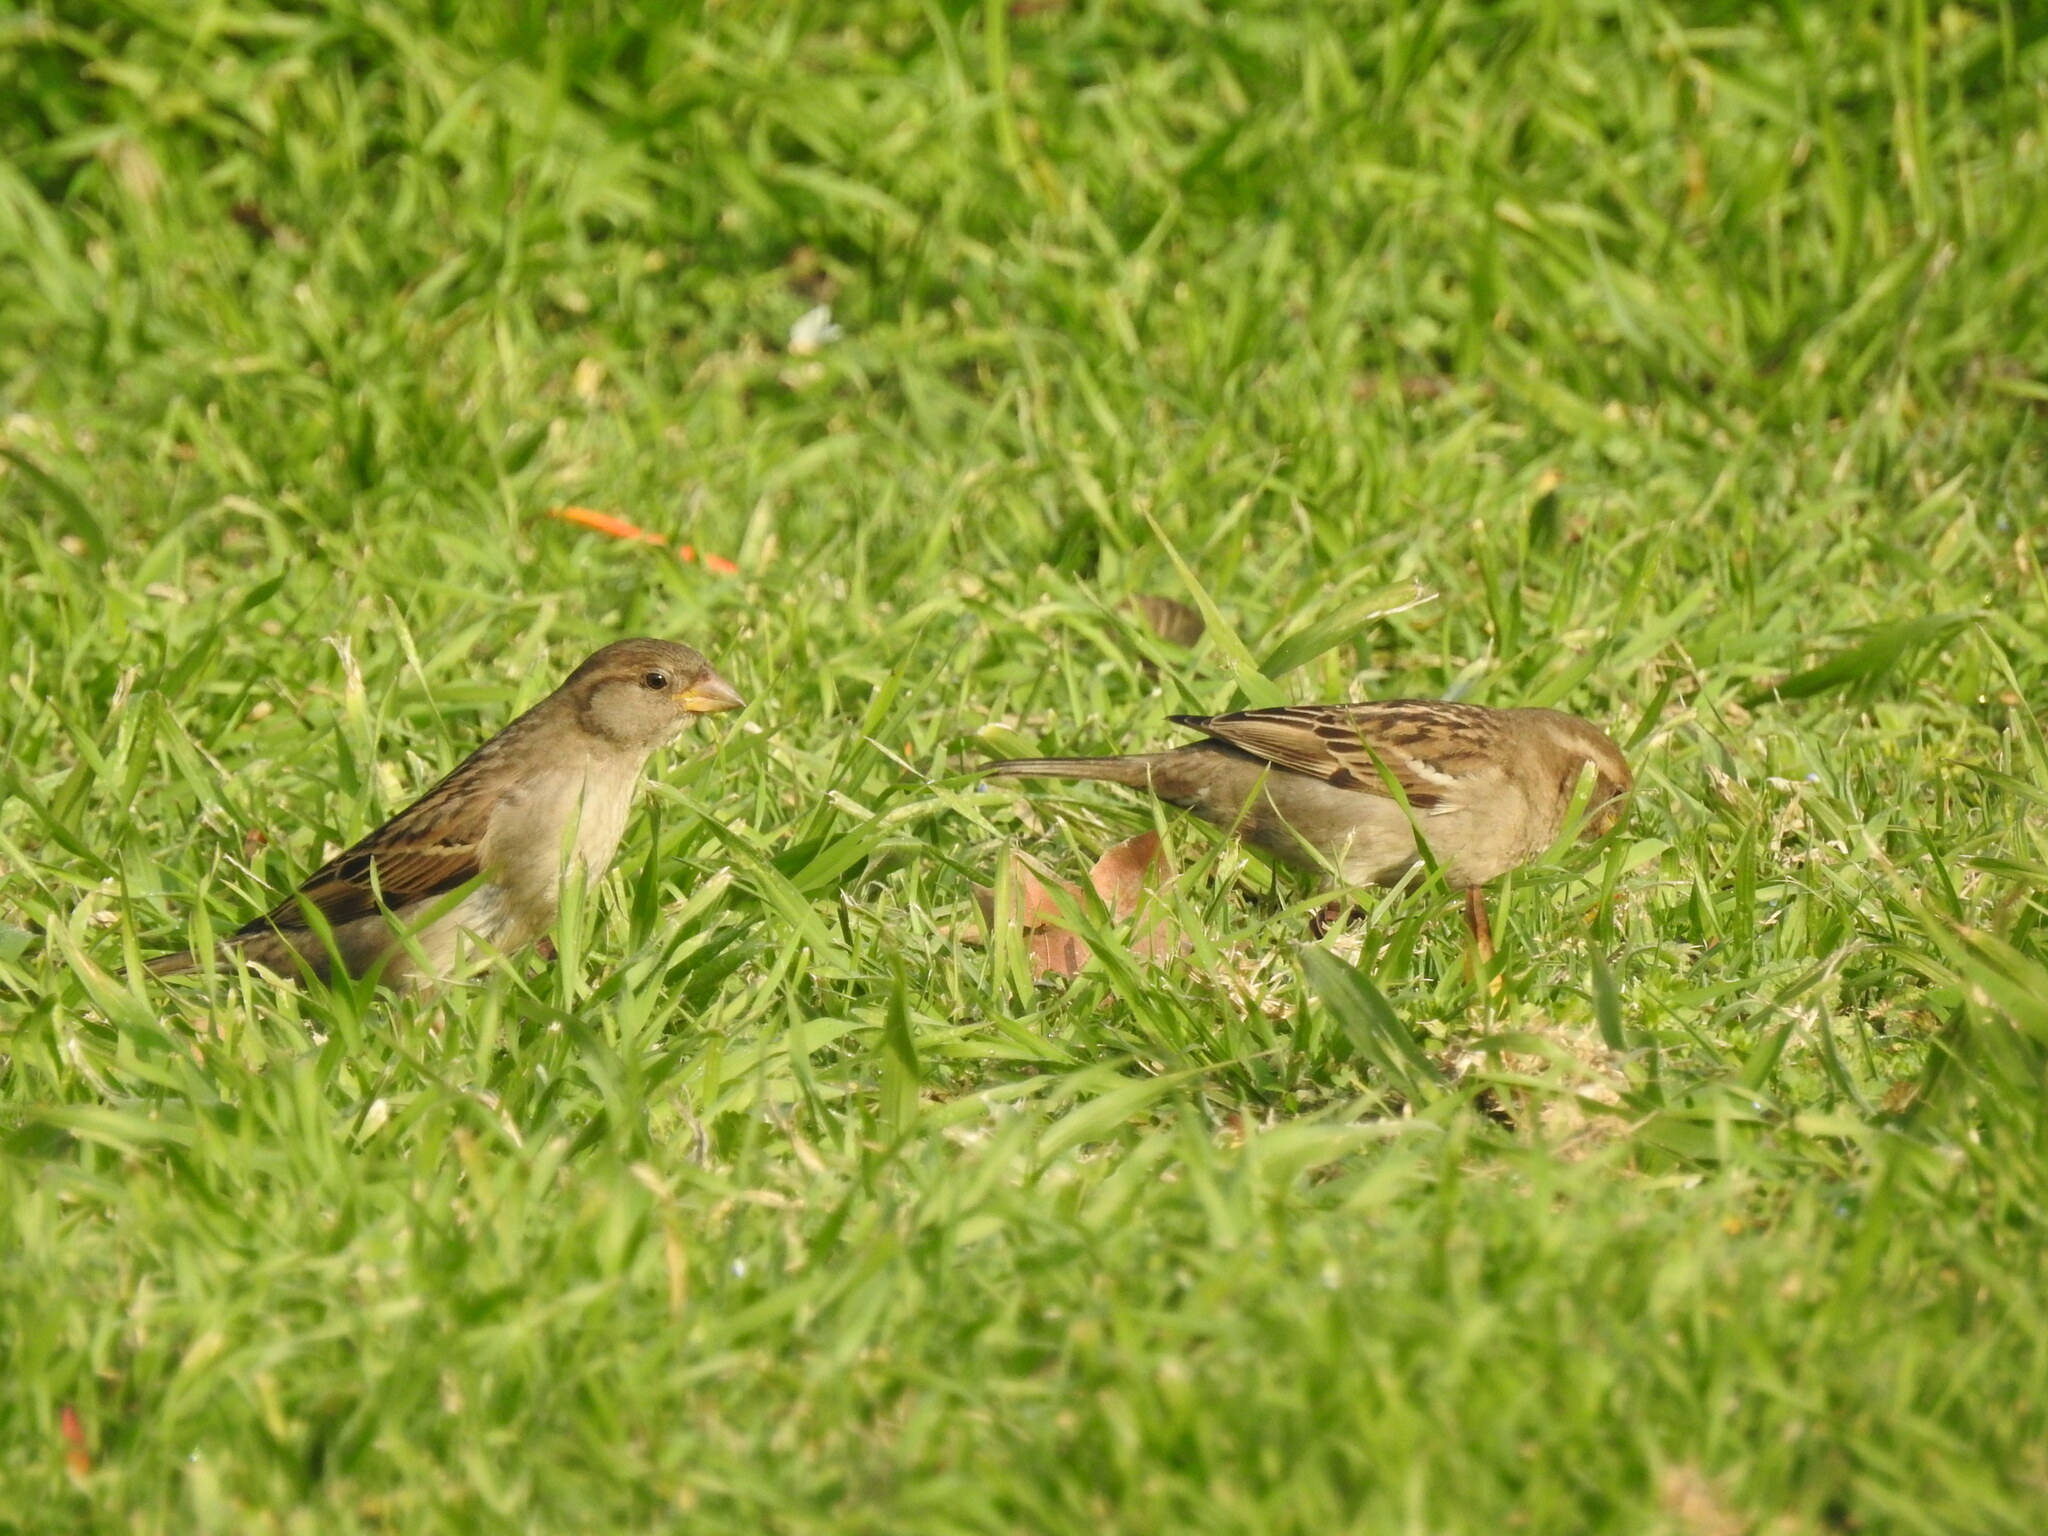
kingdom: Animalia
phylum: Chordata
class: Aves
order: Passeriformes
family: Passeridae
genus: Passer
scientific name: Passer domesticus
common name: House sparrow
